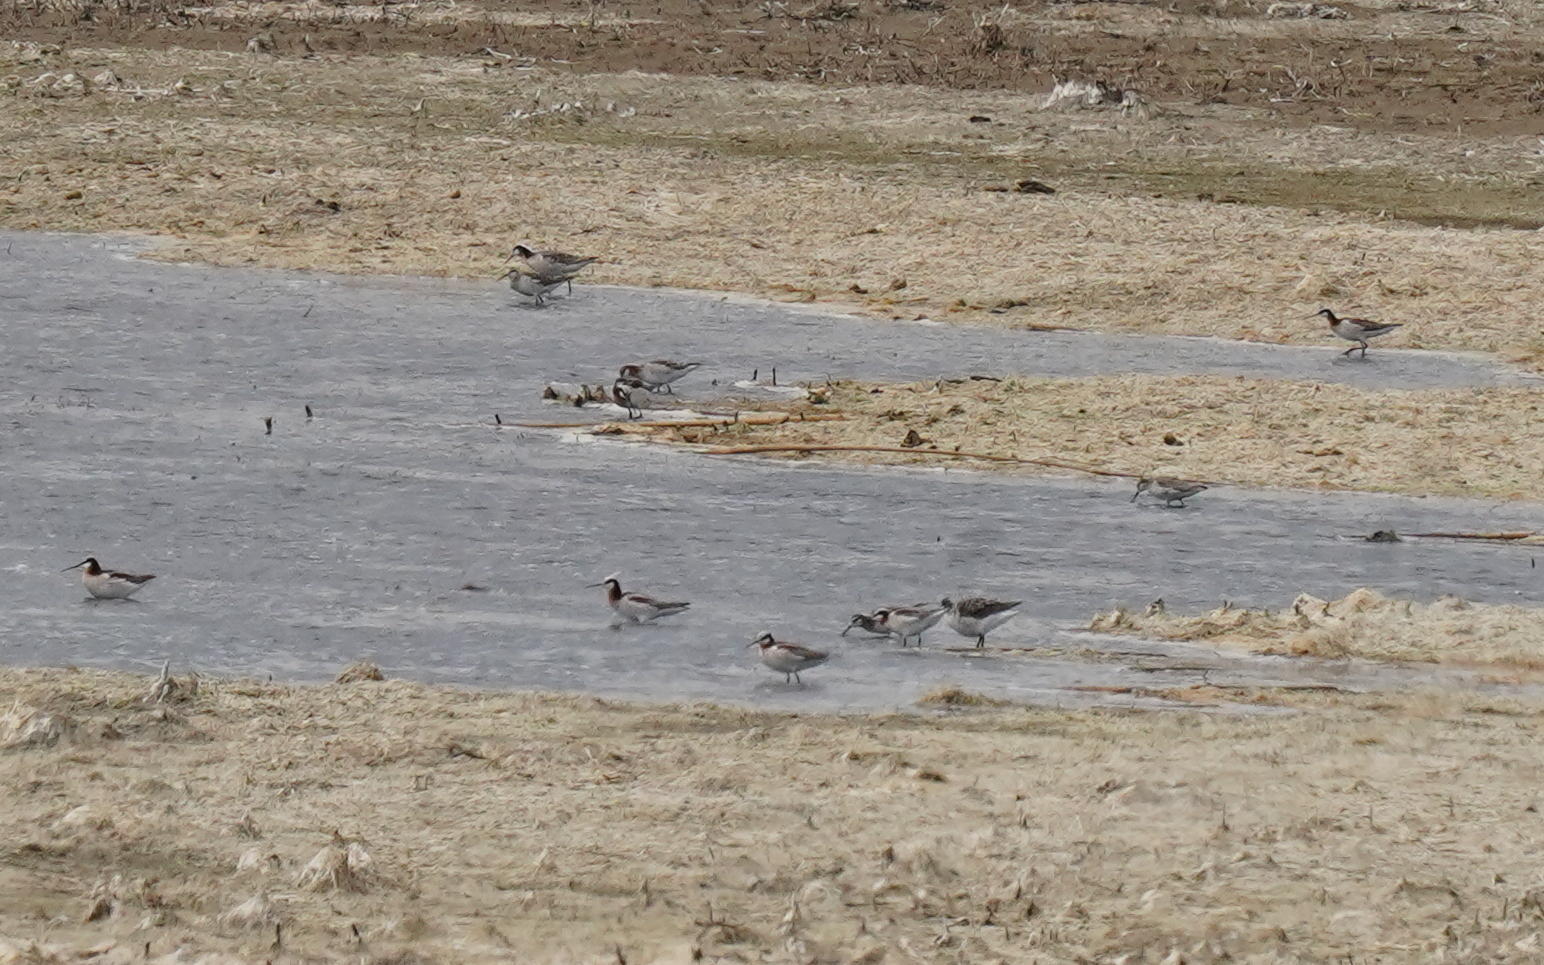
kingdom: Animalia
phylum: Chordata
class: Aves
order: Charadriiformes
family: Scolopacidae
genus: Phalaropus
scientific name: Phalaropus tricolor
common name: Wilson's phalarope
